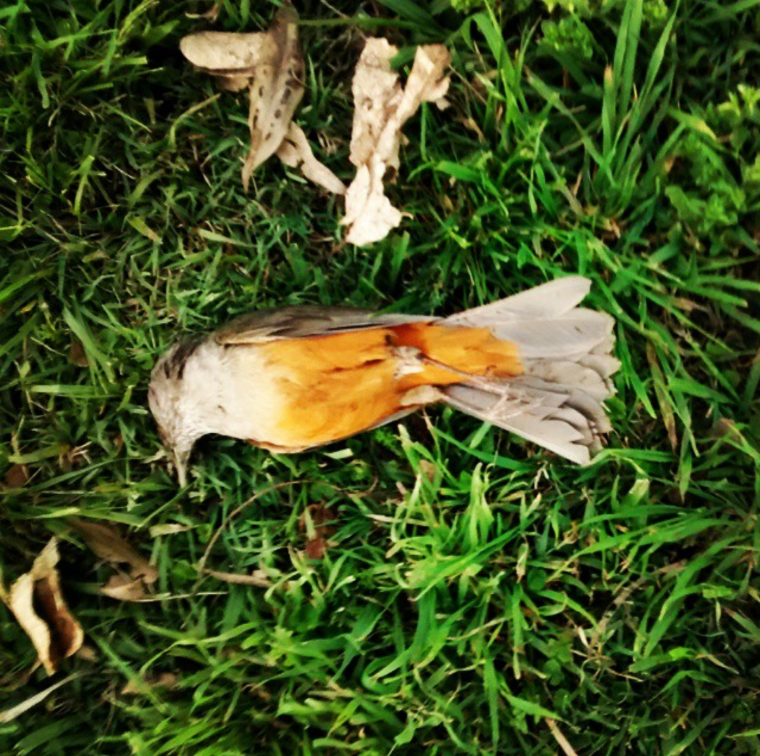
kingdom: Animalia
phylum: Chordata
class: Aves
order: Passeriformes
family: Turdidae
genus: Turdus
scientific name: Turdus rufiventris
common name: Rufous-bellied thrush
